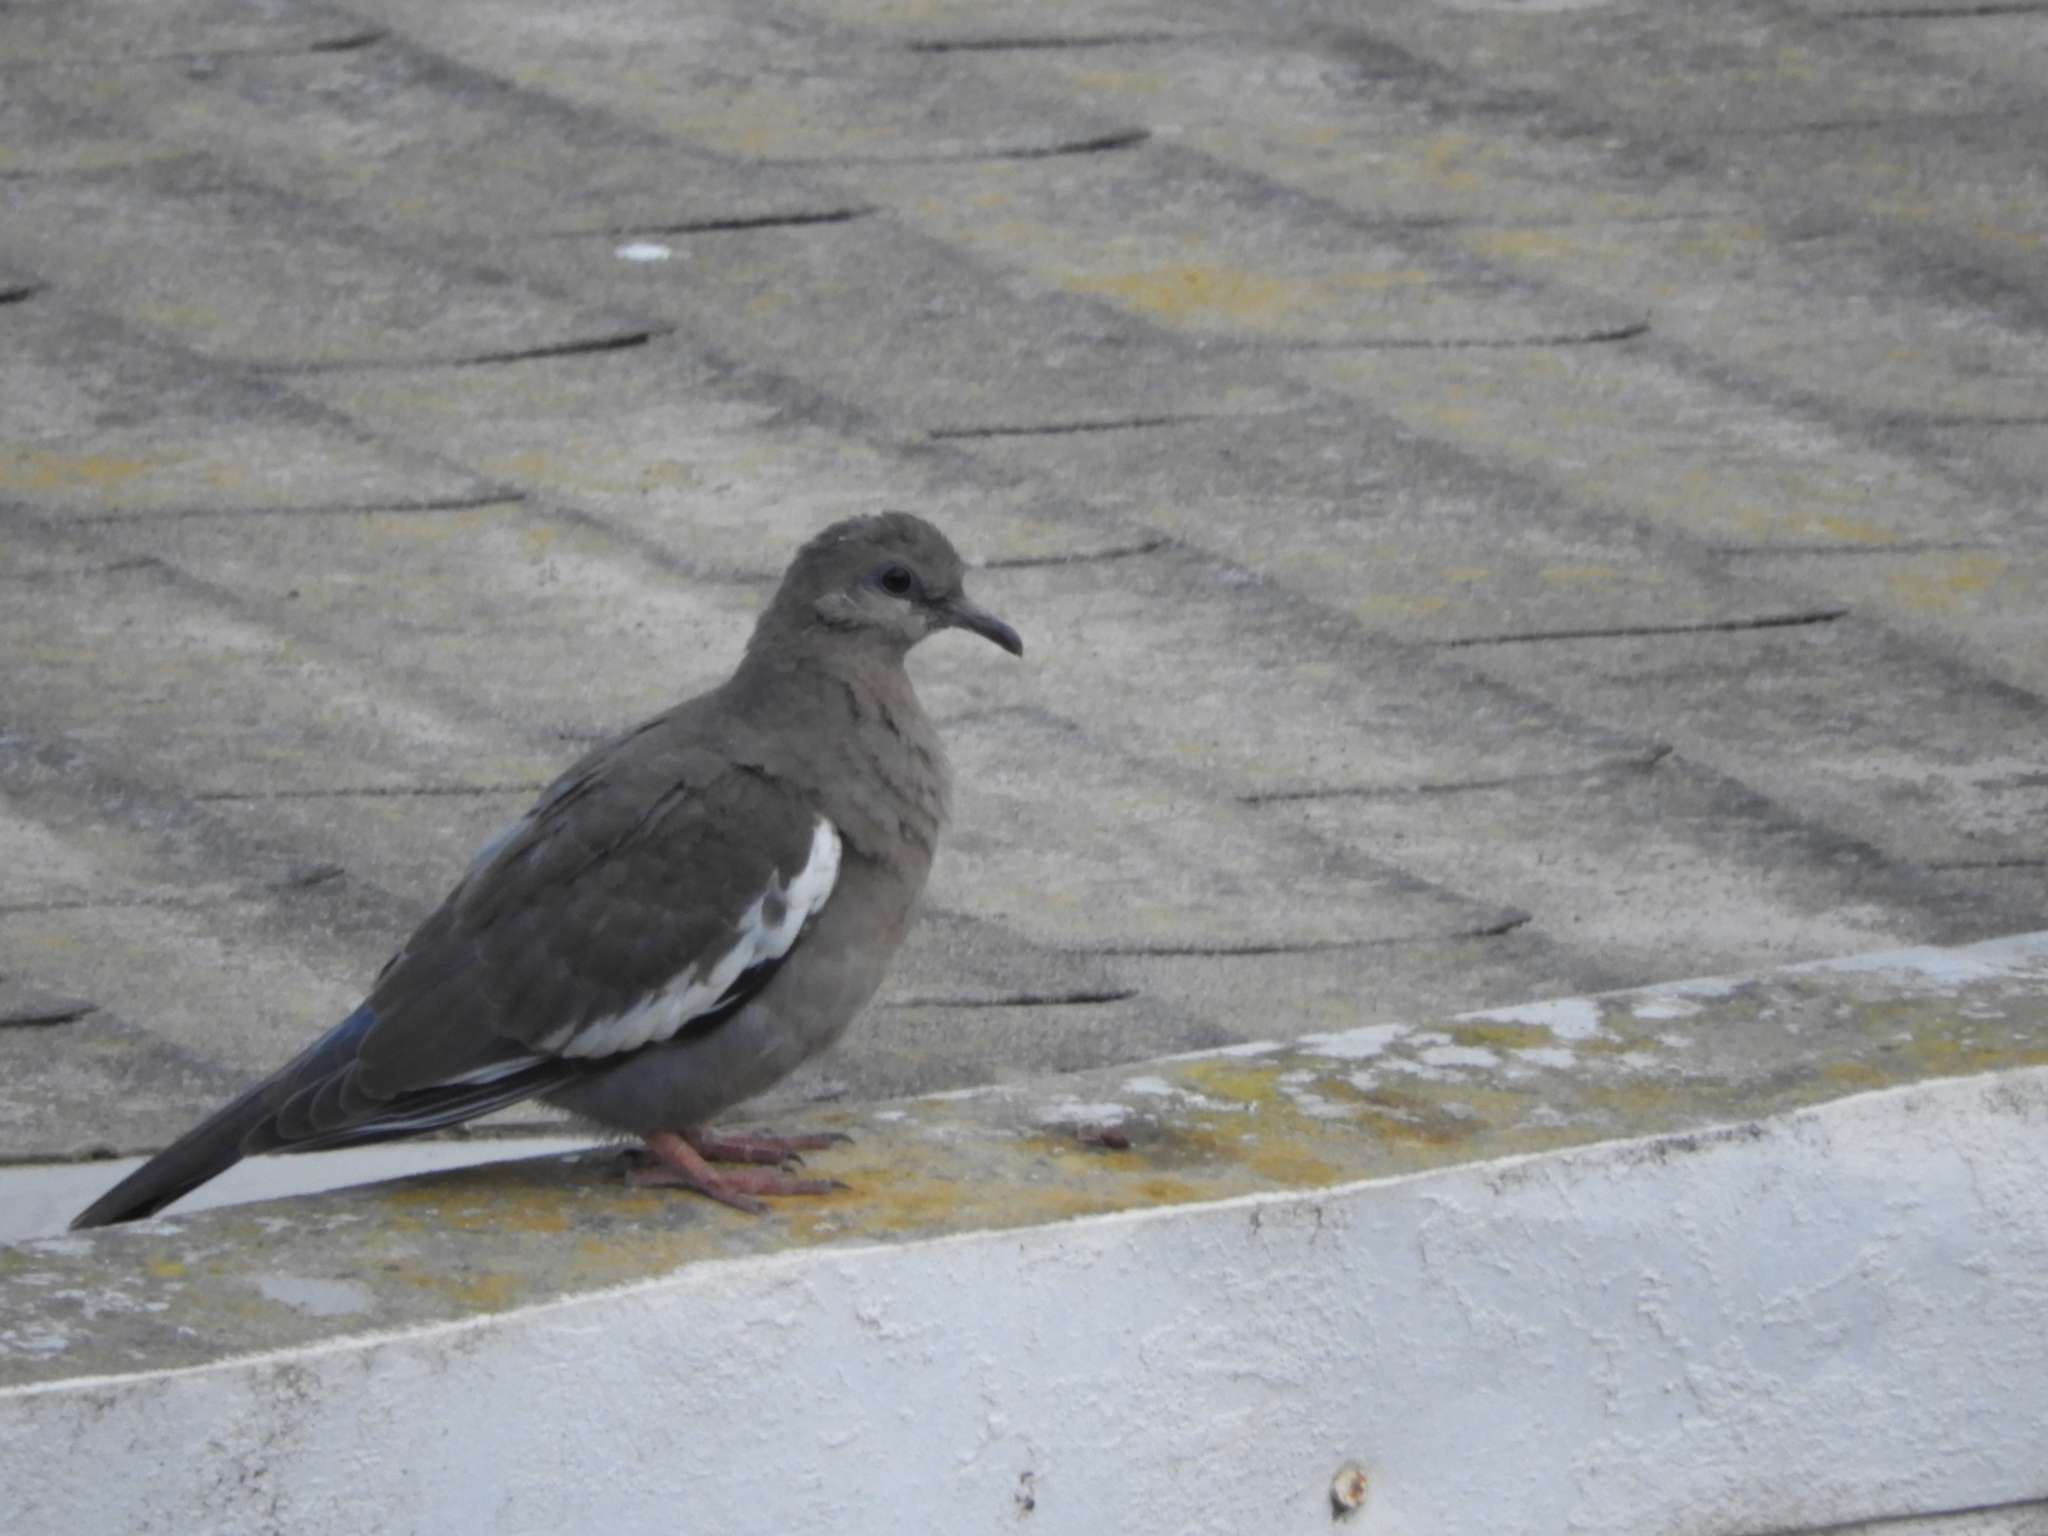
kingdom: Animalia
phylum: Chordata
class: Aves
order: Columbiformes
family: Columbidae
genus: Zenaida
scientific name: Zenaida meloda
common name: West peruvian dove
